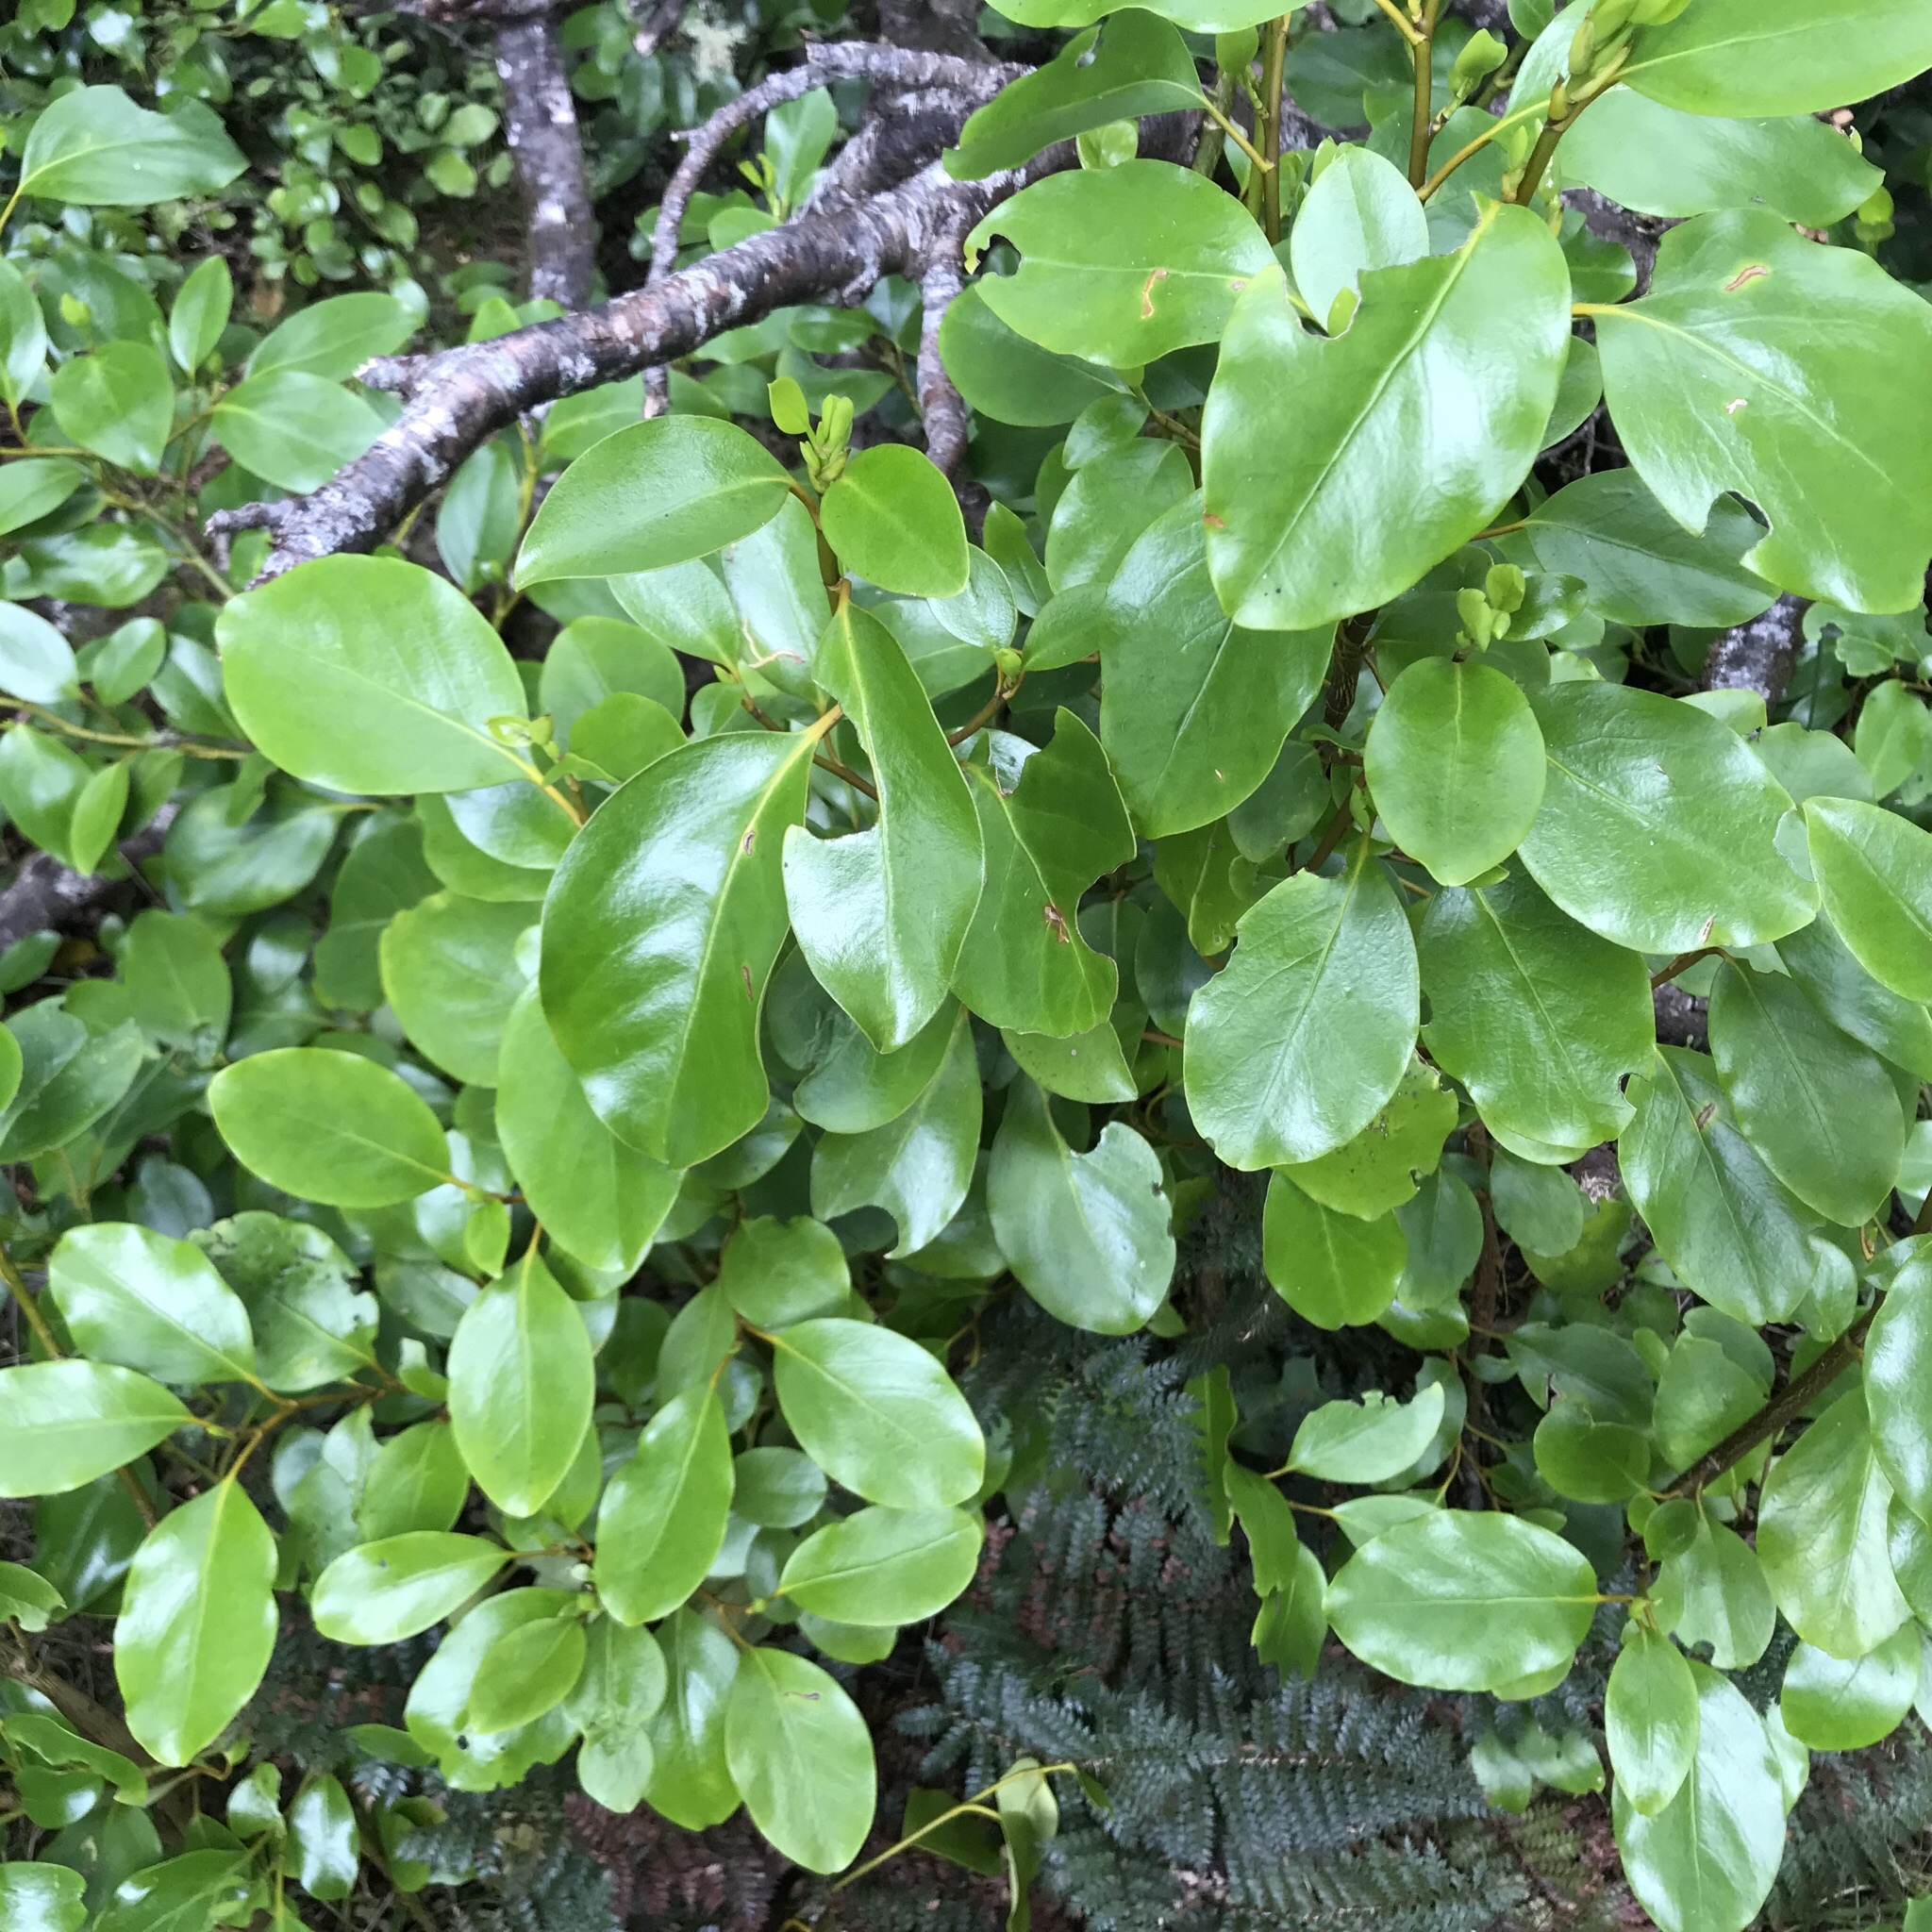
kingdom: Plantae
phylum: Tracheophyta
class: Magnoliopsida
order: Apiales
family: Griseliniaceae
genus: Griselinia
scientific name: Griselinia littoralis
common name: New zealand broadleaf
